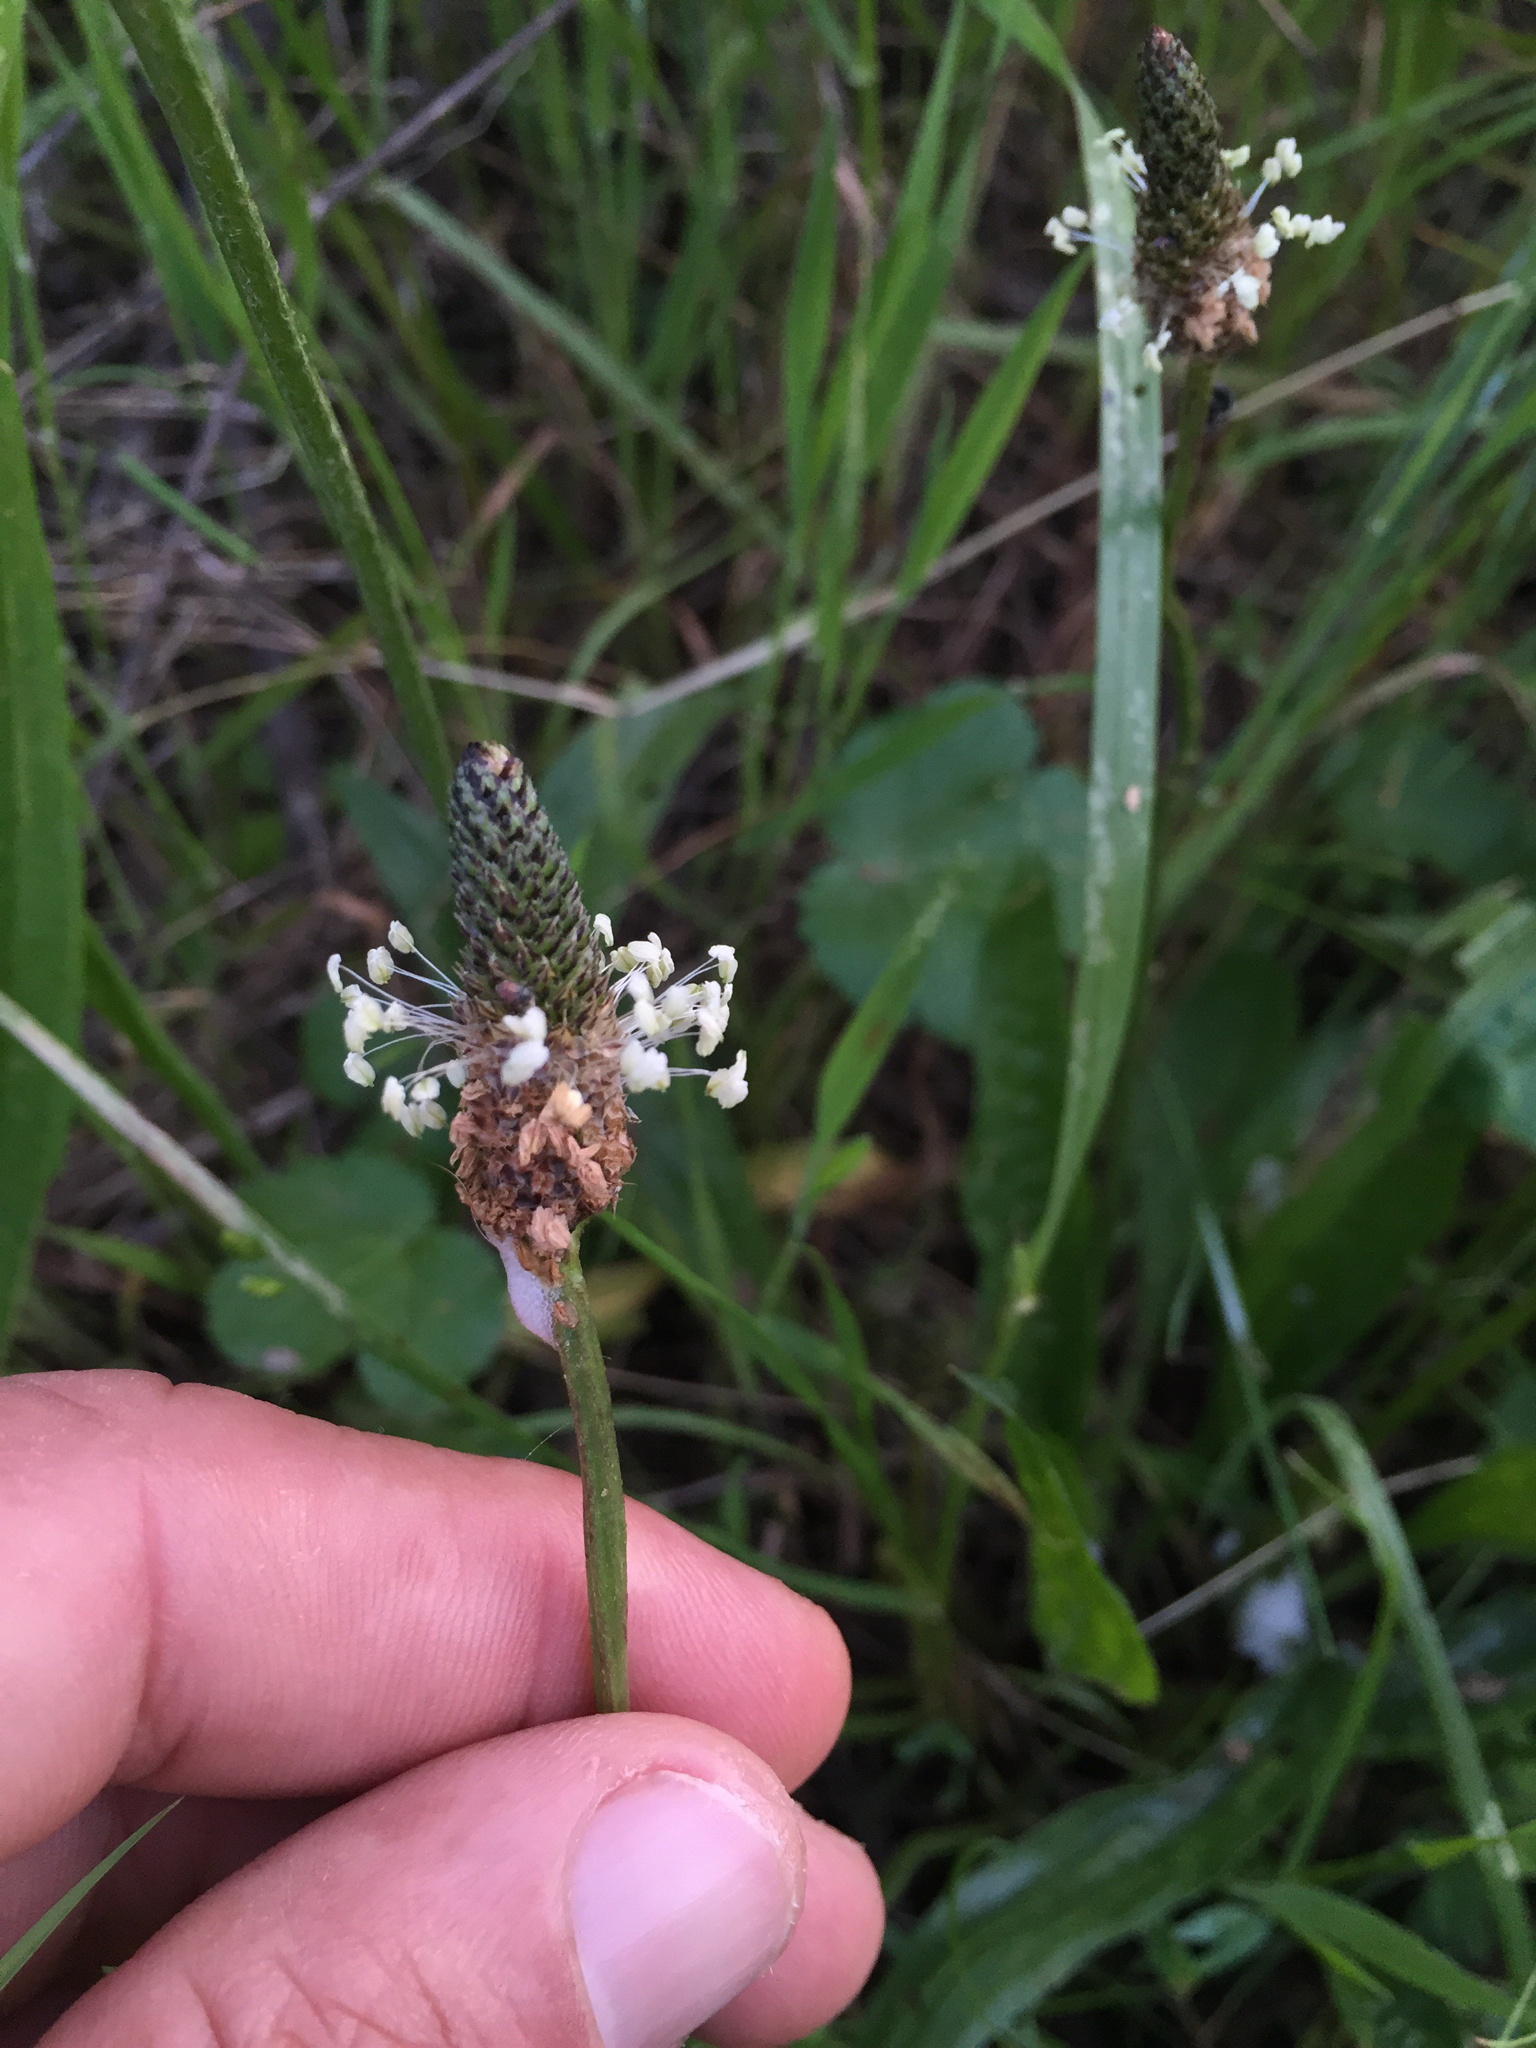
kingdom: Plantae
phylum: Tracheophyta
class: Magnoliopsida
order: Lamiales
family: Plantaginaceae
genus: Plantago
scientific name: Plantago lanceolata
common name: Ribwort plantain
